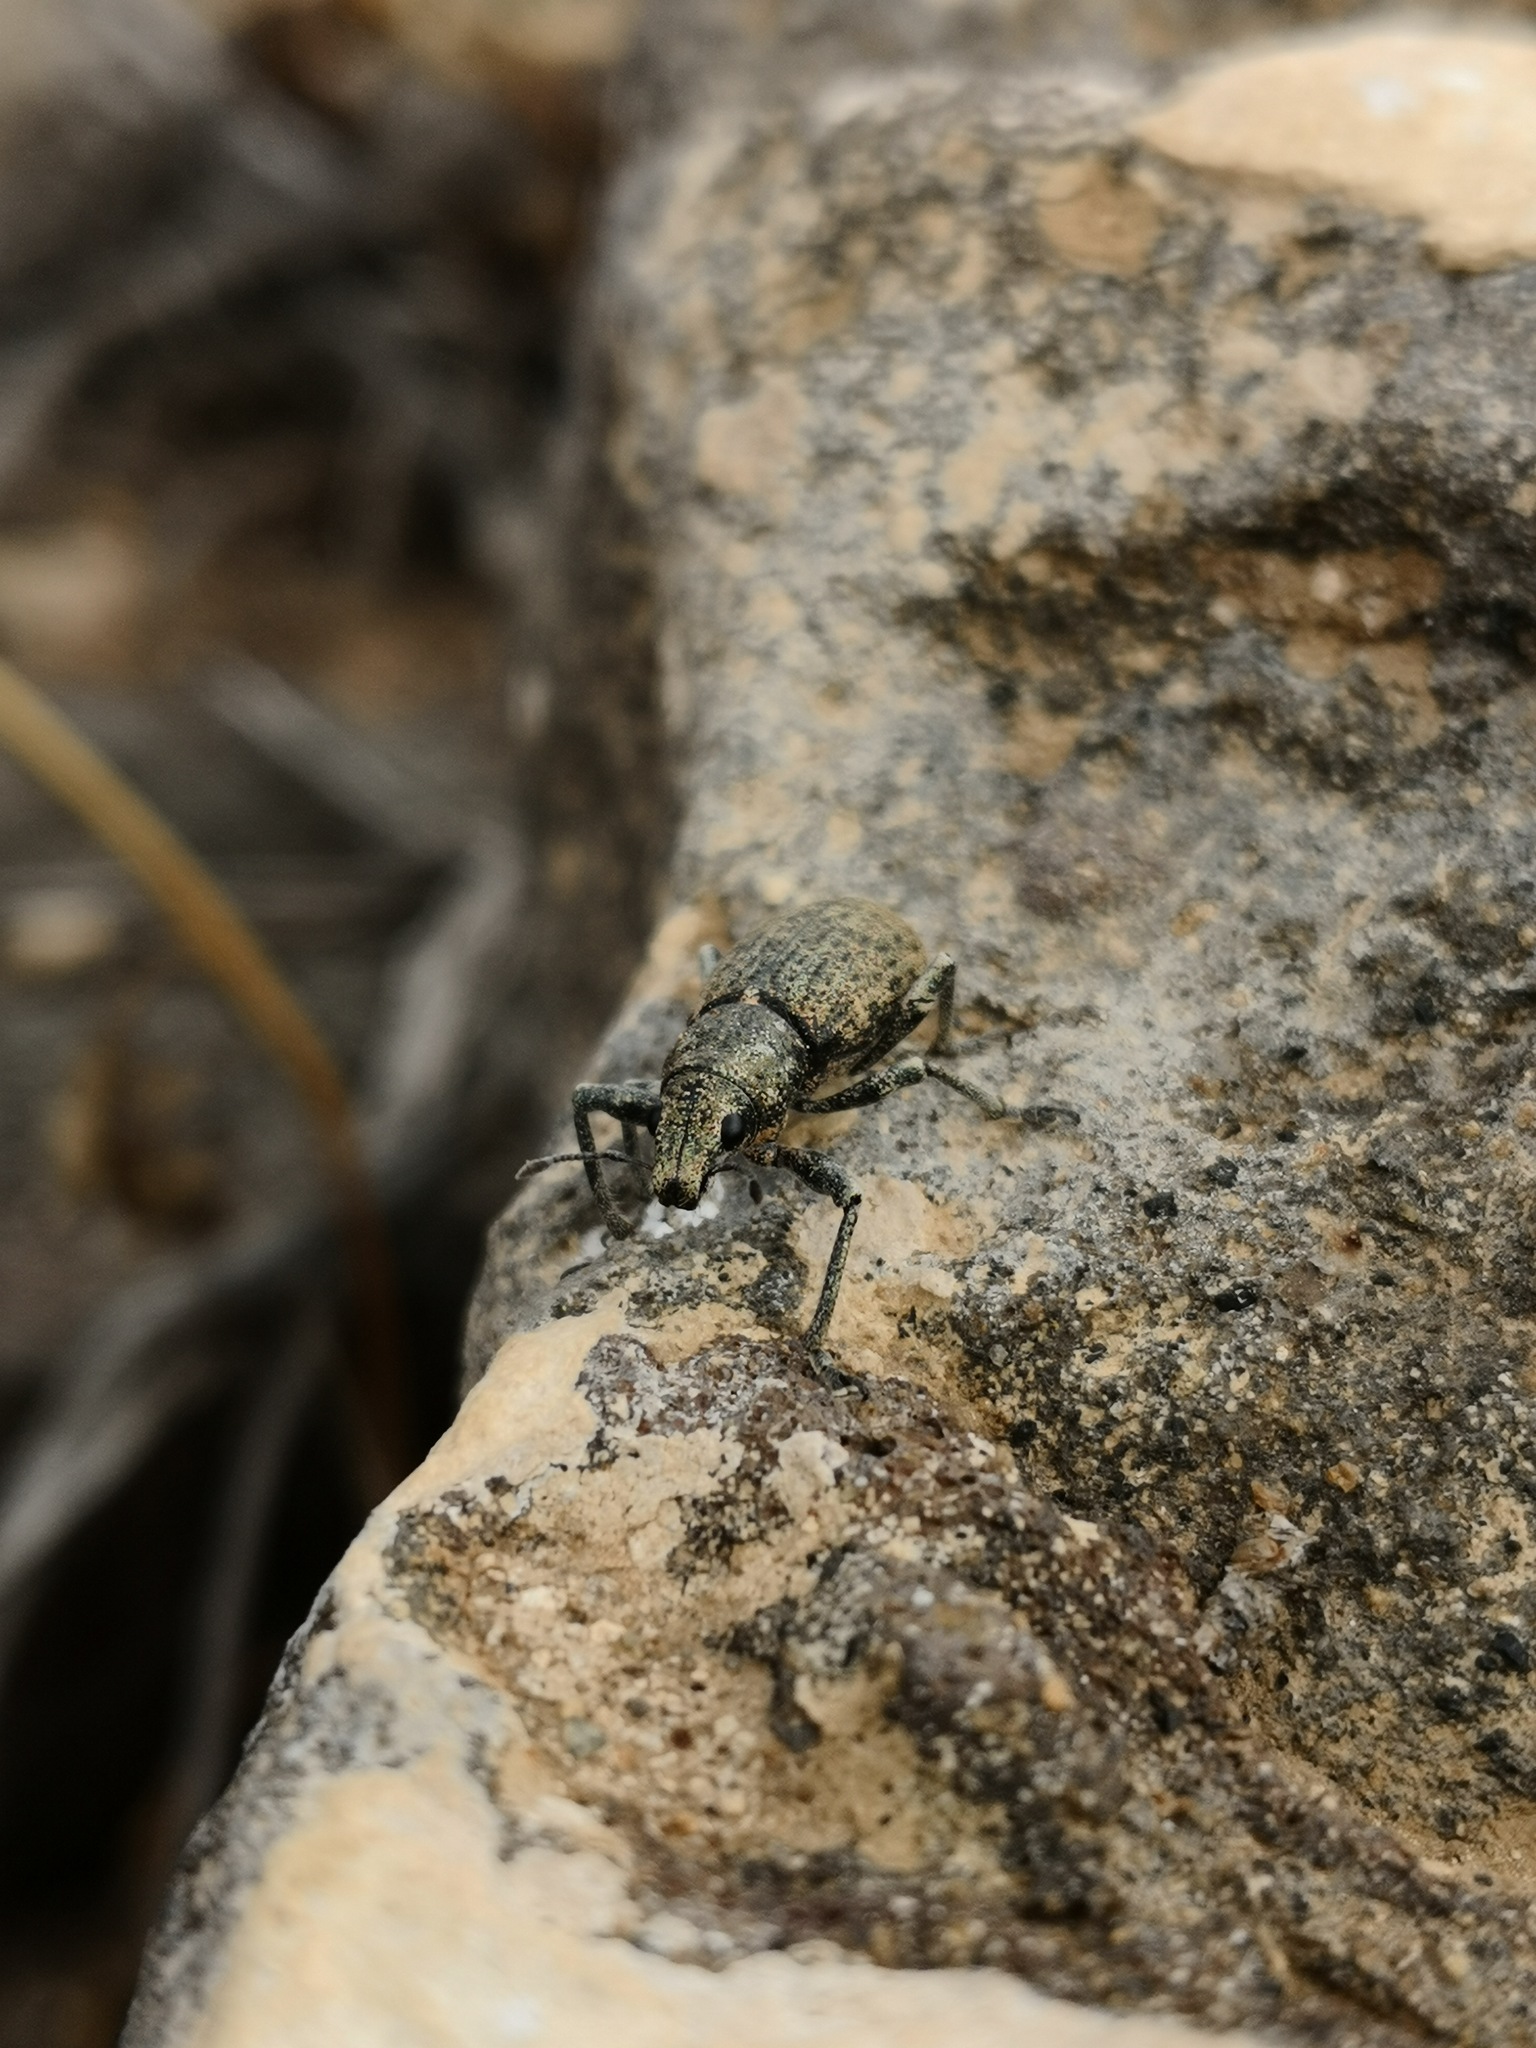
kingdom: Animalia
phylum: Arthropoda
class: Insecta
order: Coleoptera
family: Curculionidae
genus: Herpisticus
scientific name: Herpisticus subvestitus
